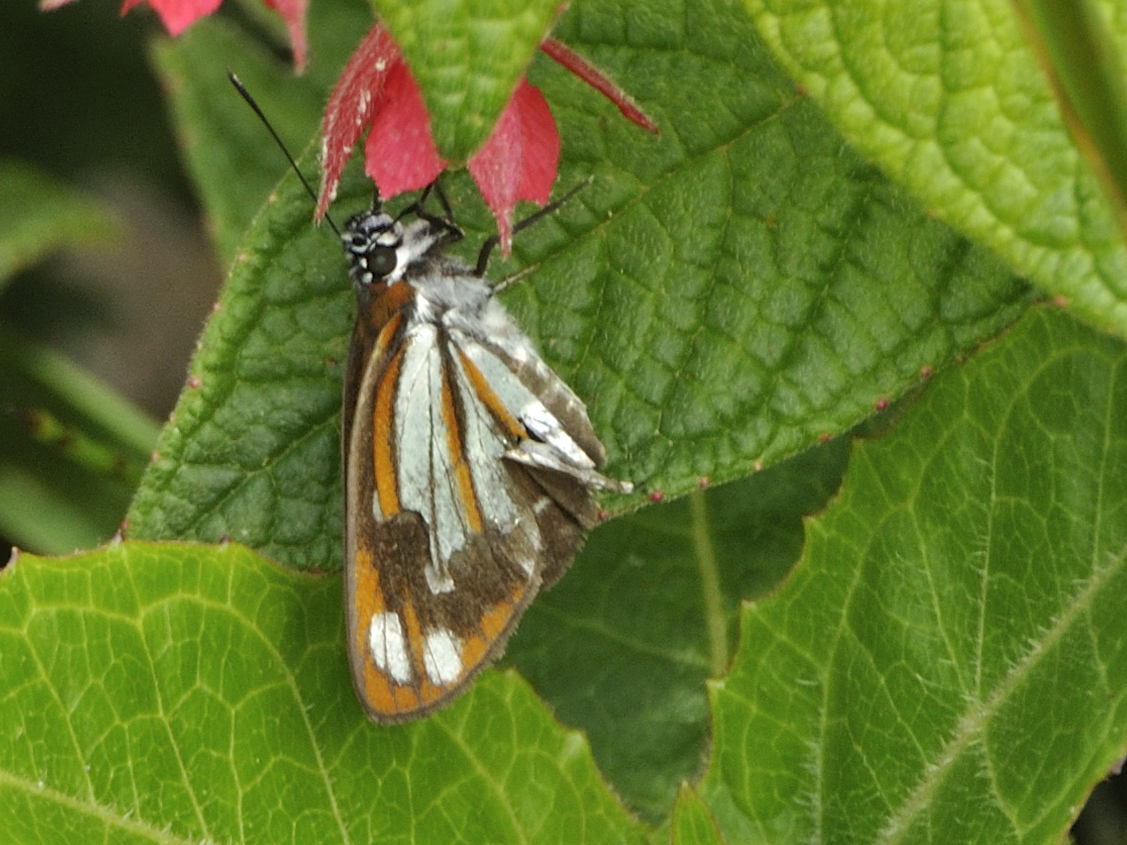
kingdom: Animalia
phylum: Arthropoda
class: Insecta
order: Lepidoptera
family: Hesperiidae
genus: Corra
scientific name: Corra
